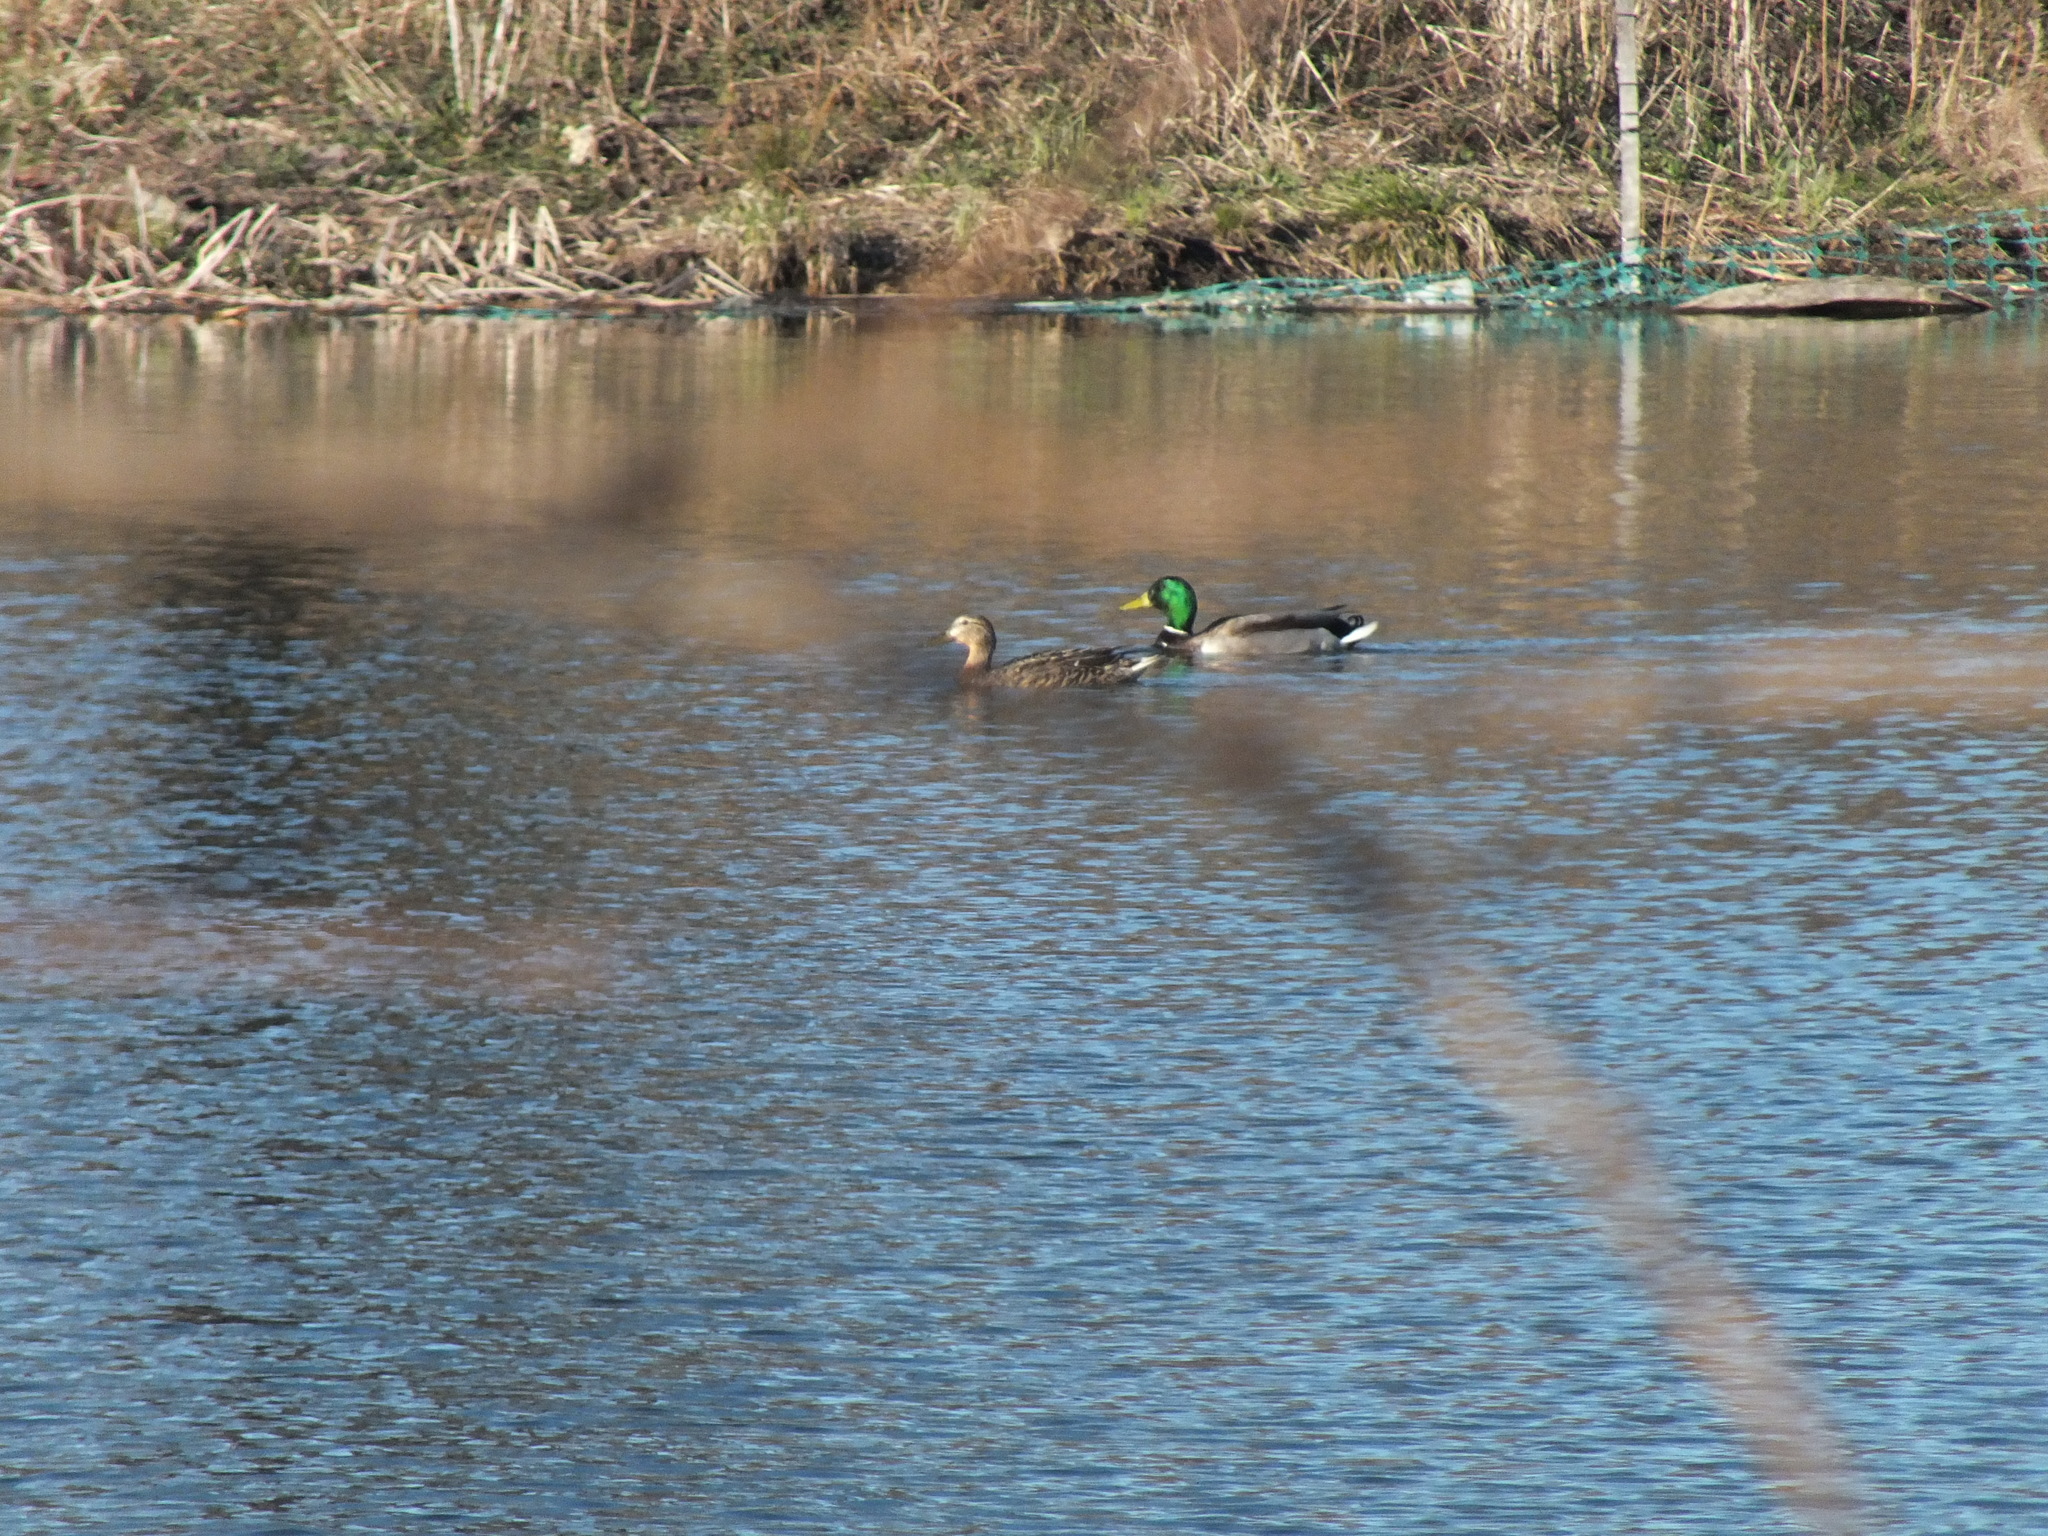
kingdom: Animalia
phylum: Chordata
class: Aves
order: Anseriformes
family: Anatidae
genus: Anas
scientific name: Anas platyrhynchos
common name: Mallard
